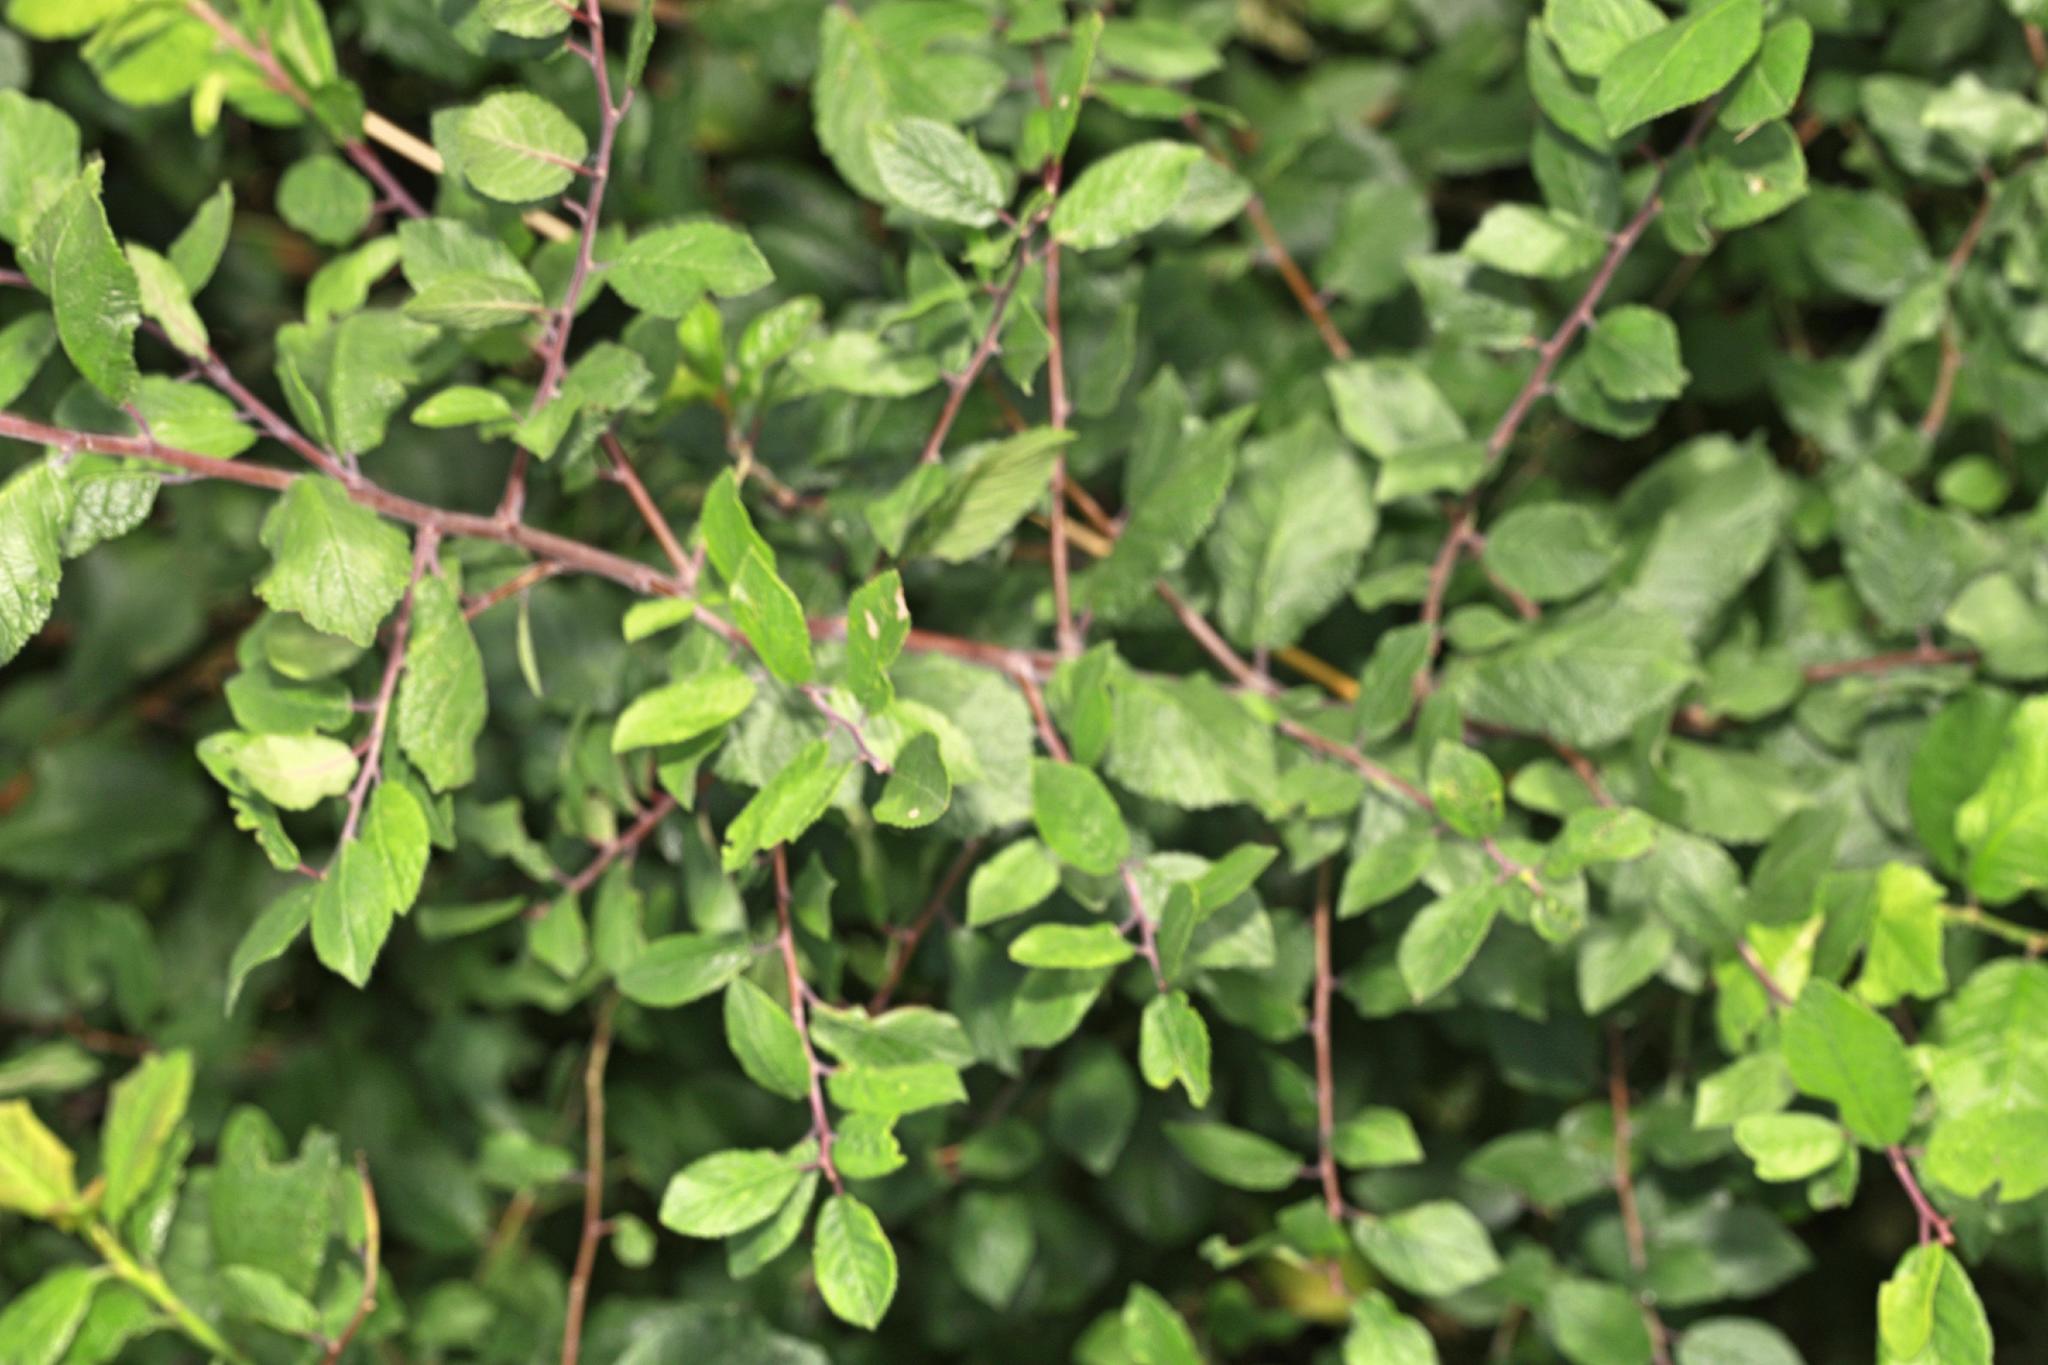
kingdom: Plantae
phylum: Tracheophyta
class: Magnoliopsida
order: Rosales
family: Rosaceae
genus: Prunus
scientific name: Prunus spinosa
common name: Blackthorn
